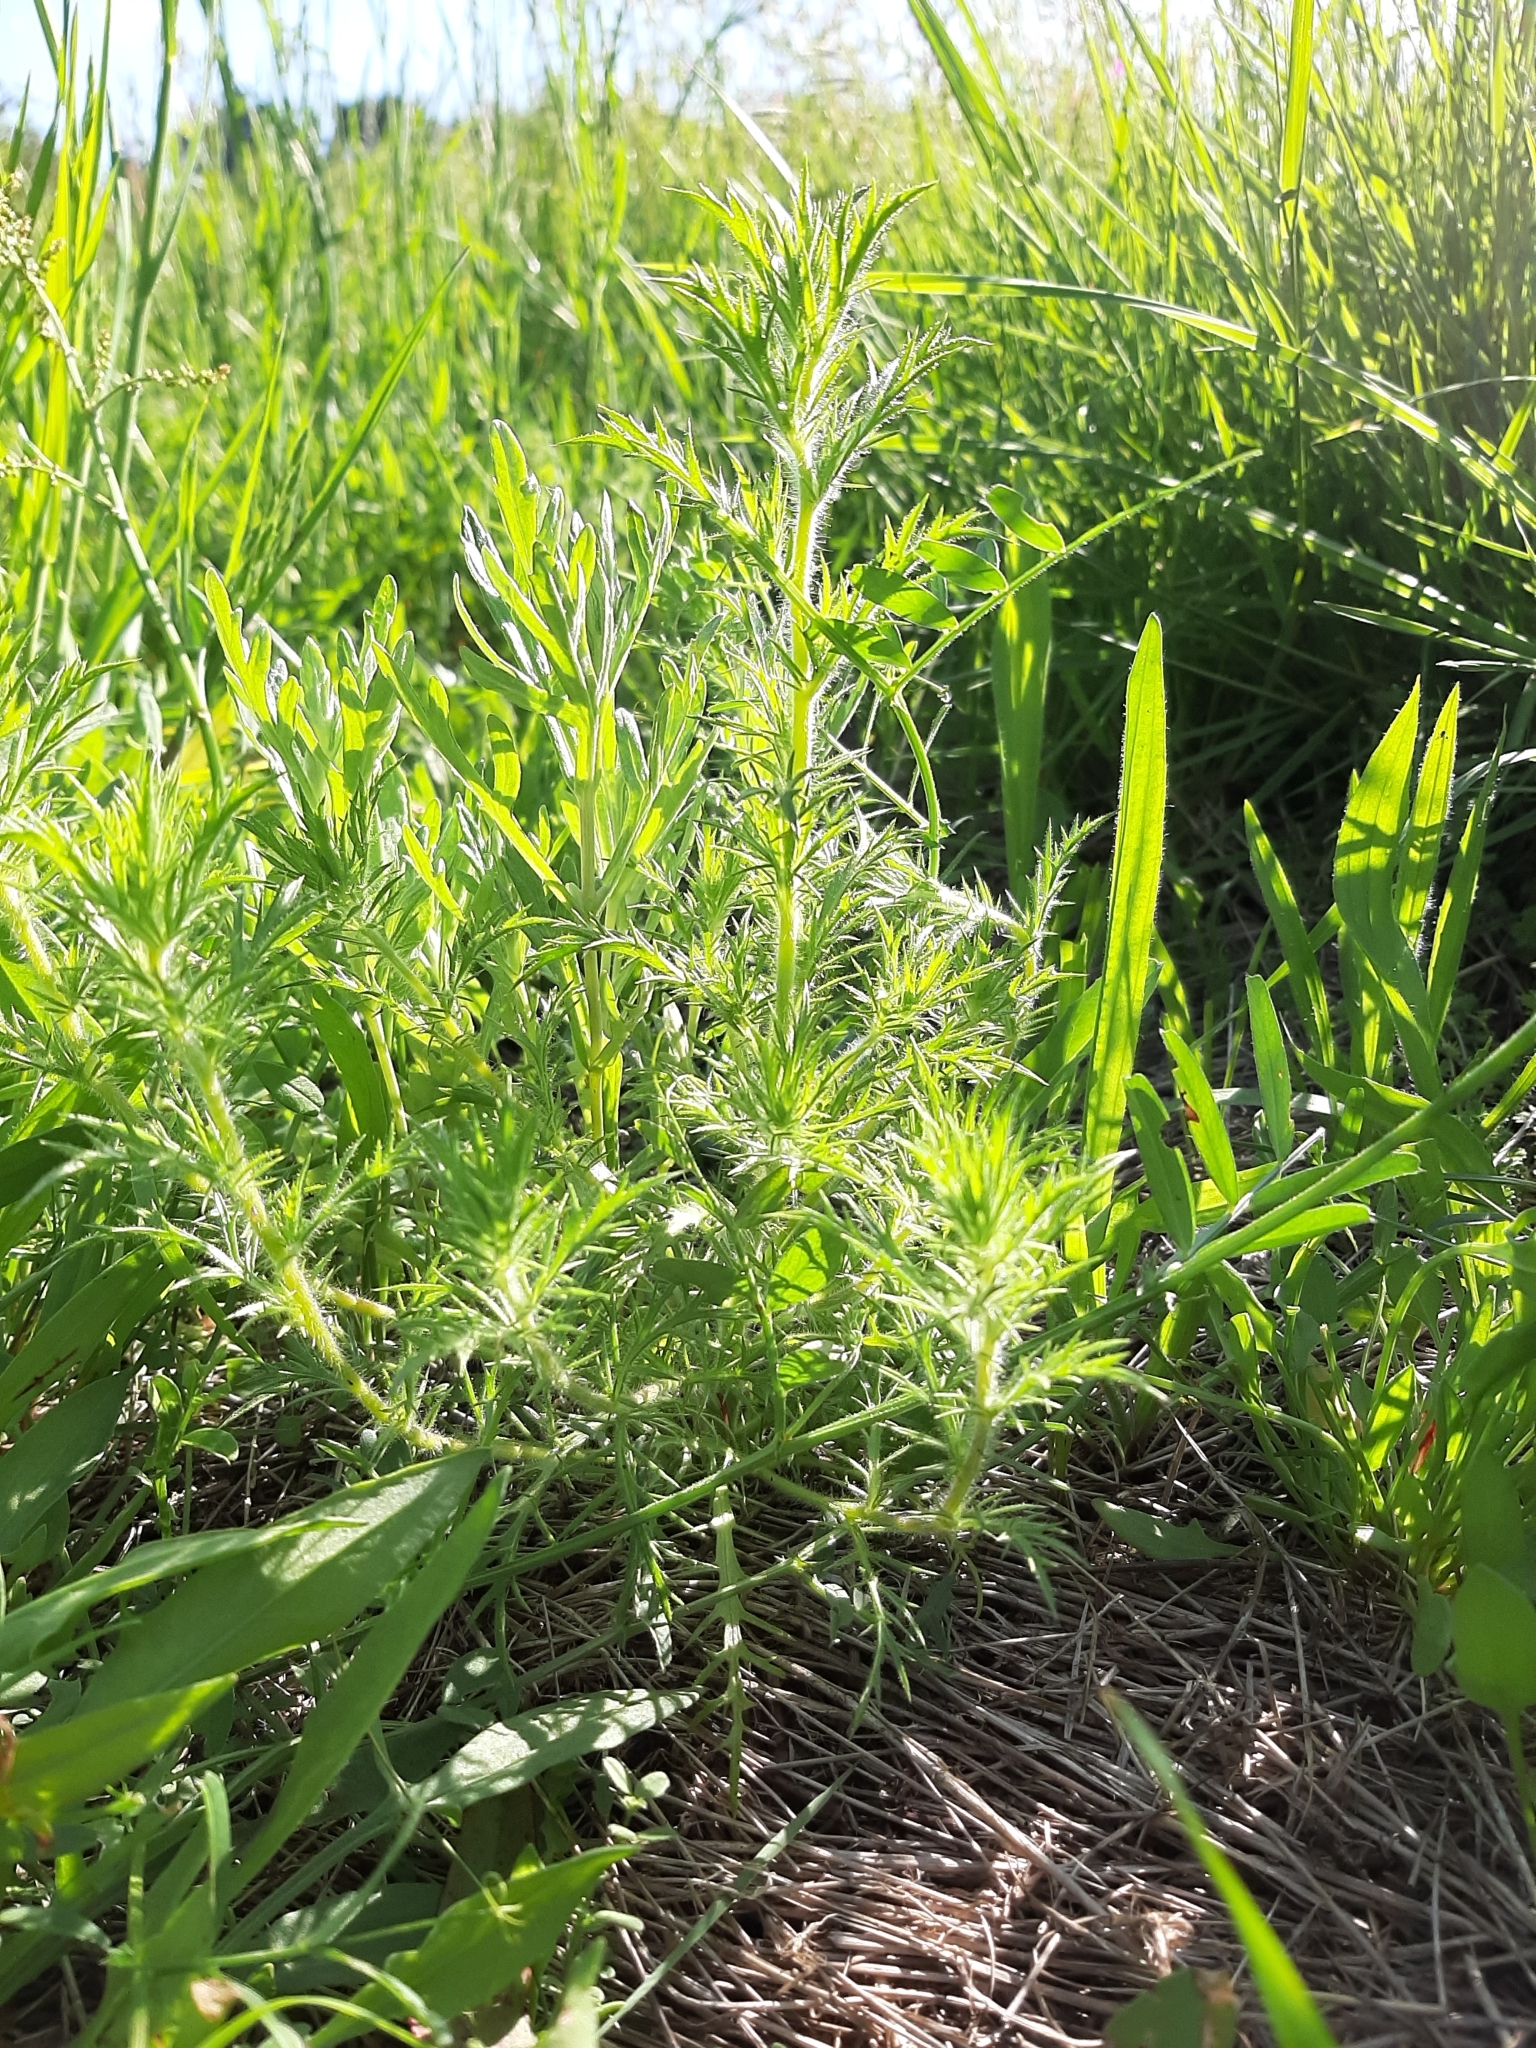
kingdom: Plantae
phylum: Tracheophyta
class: Magnoliopsida
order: Ericales
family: Polemoniaceae
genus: Navarretia
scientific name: Navarretia squarrosa
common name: Skunkweed
